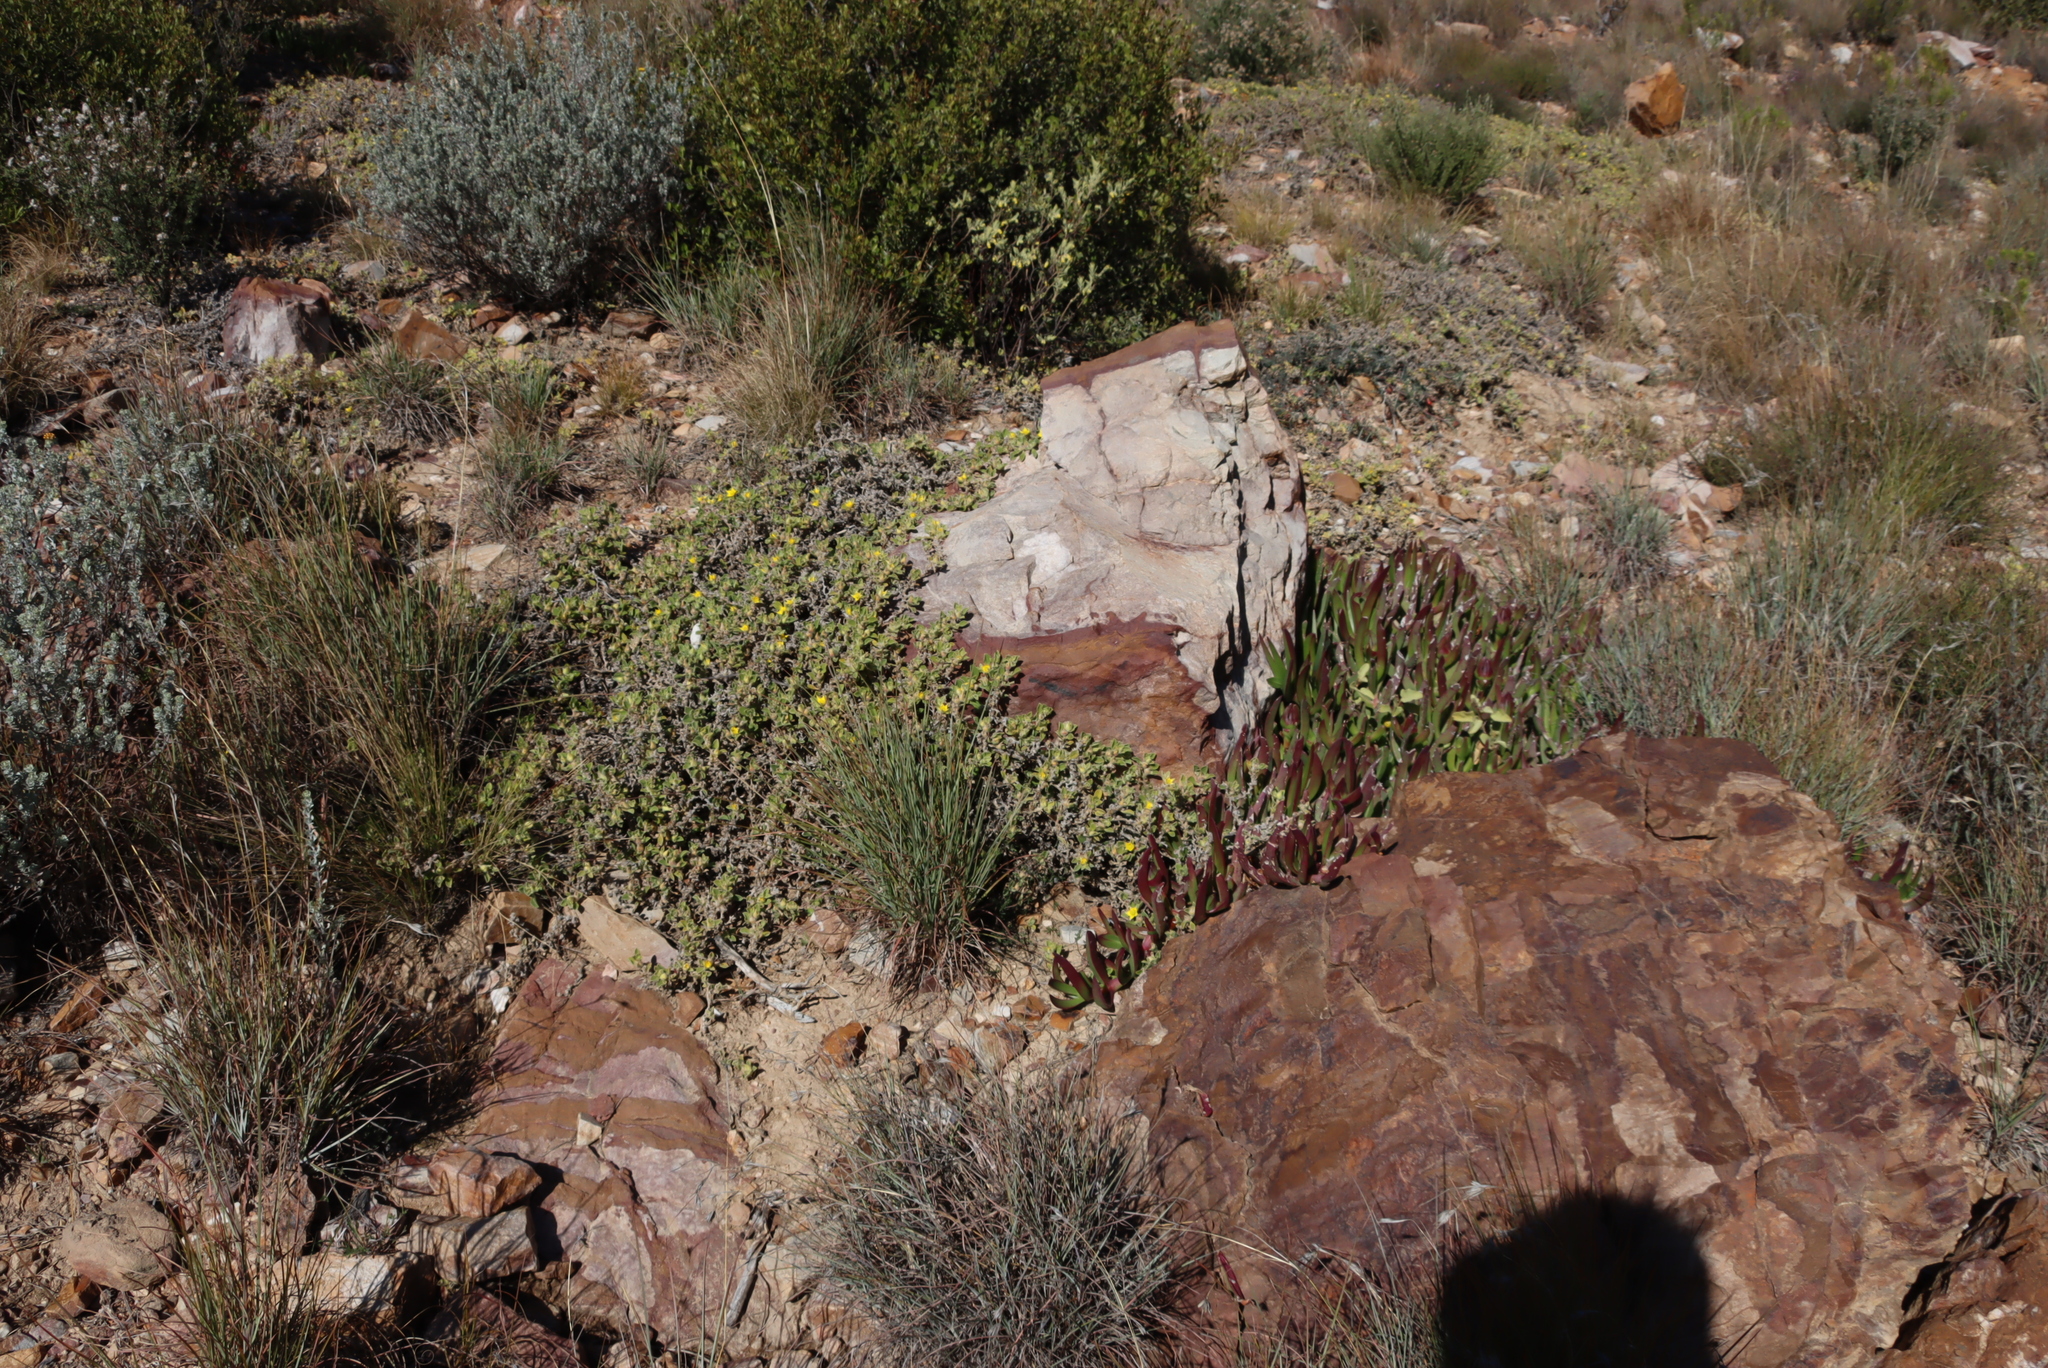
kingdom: Plantae
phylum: Tracheophyta
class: Magnoliopsida
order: Caryophyllales
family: Aizoaceae
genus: Aizoon
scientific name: Aizoon glinoides
